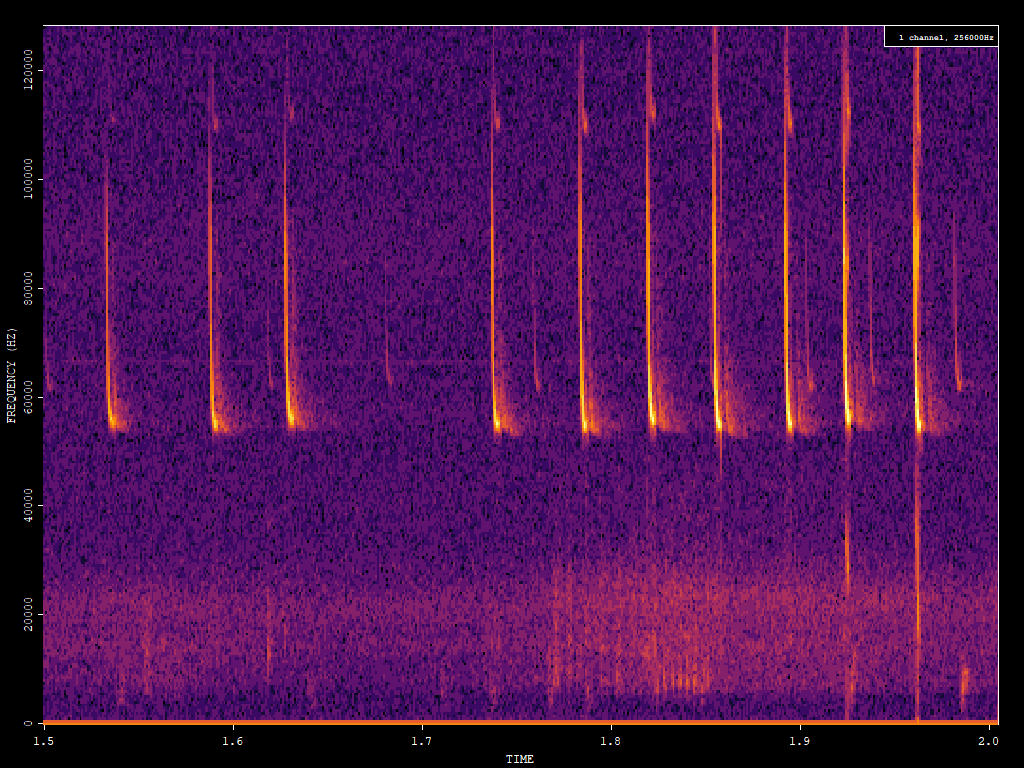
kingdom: Animalia
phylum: Chordata
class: Mammalia
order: Chiroptera
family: Vespertilionidae
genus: Pipistrellus
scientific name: Pipistrellus pygmaeus
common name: Soprano pipistrelle
